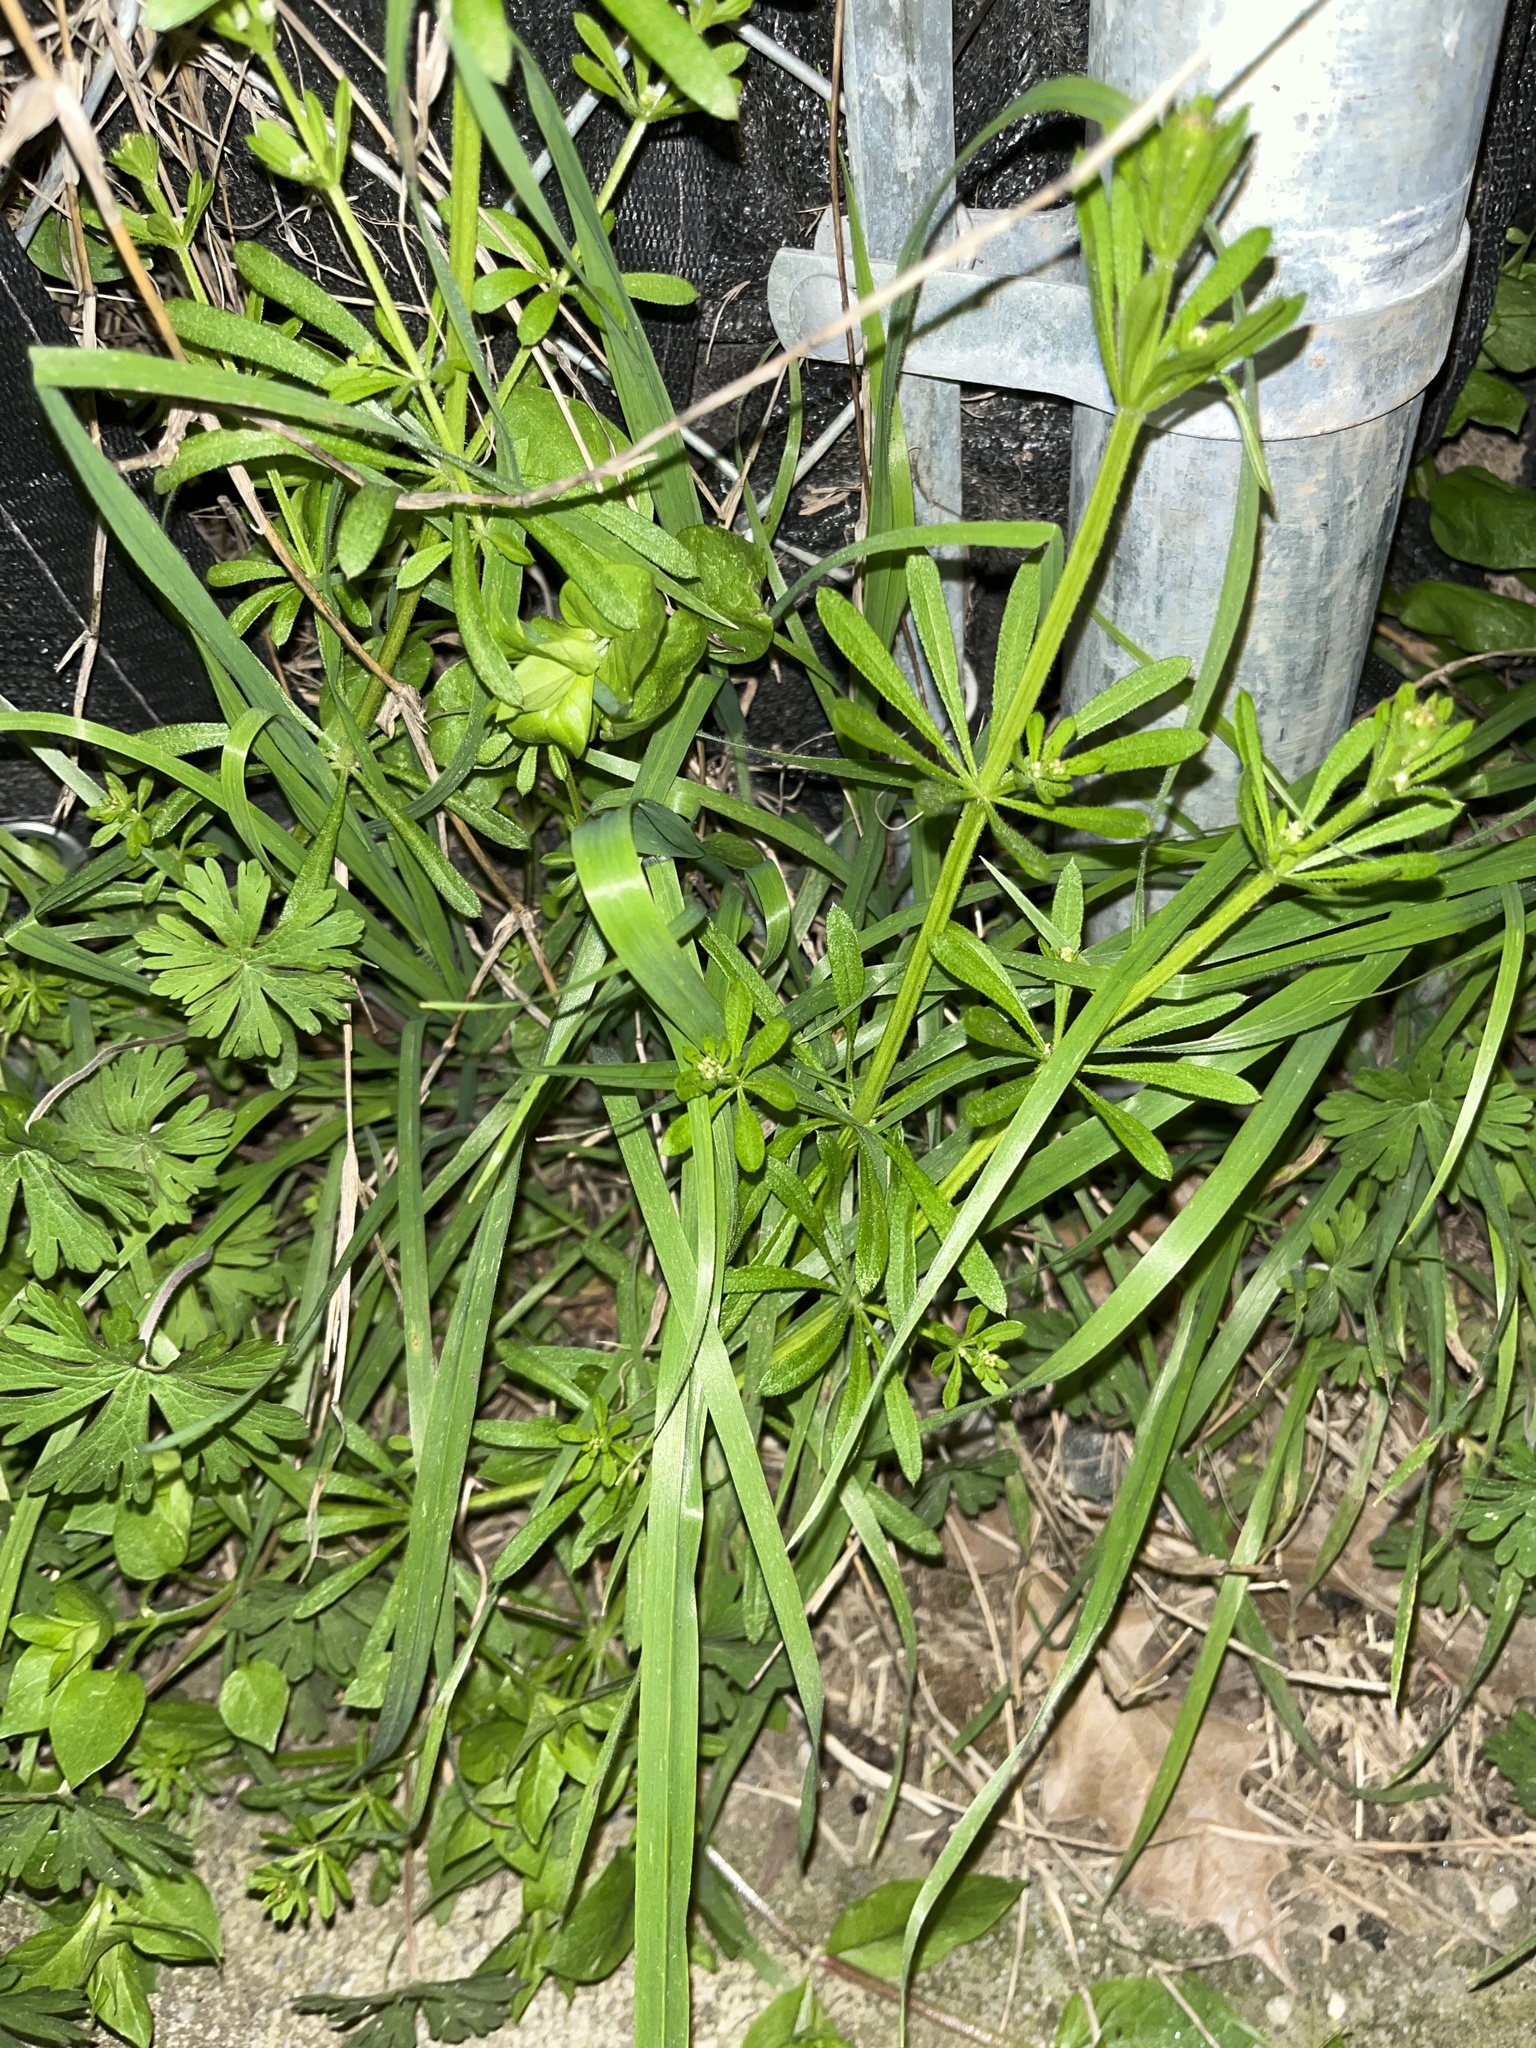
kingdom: Plantae
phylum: Tracheophyta
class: Magnoliopsida
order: Gentianales
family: Rubiaceae
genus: Galium
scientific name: Galium aparine
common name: Cleavers
